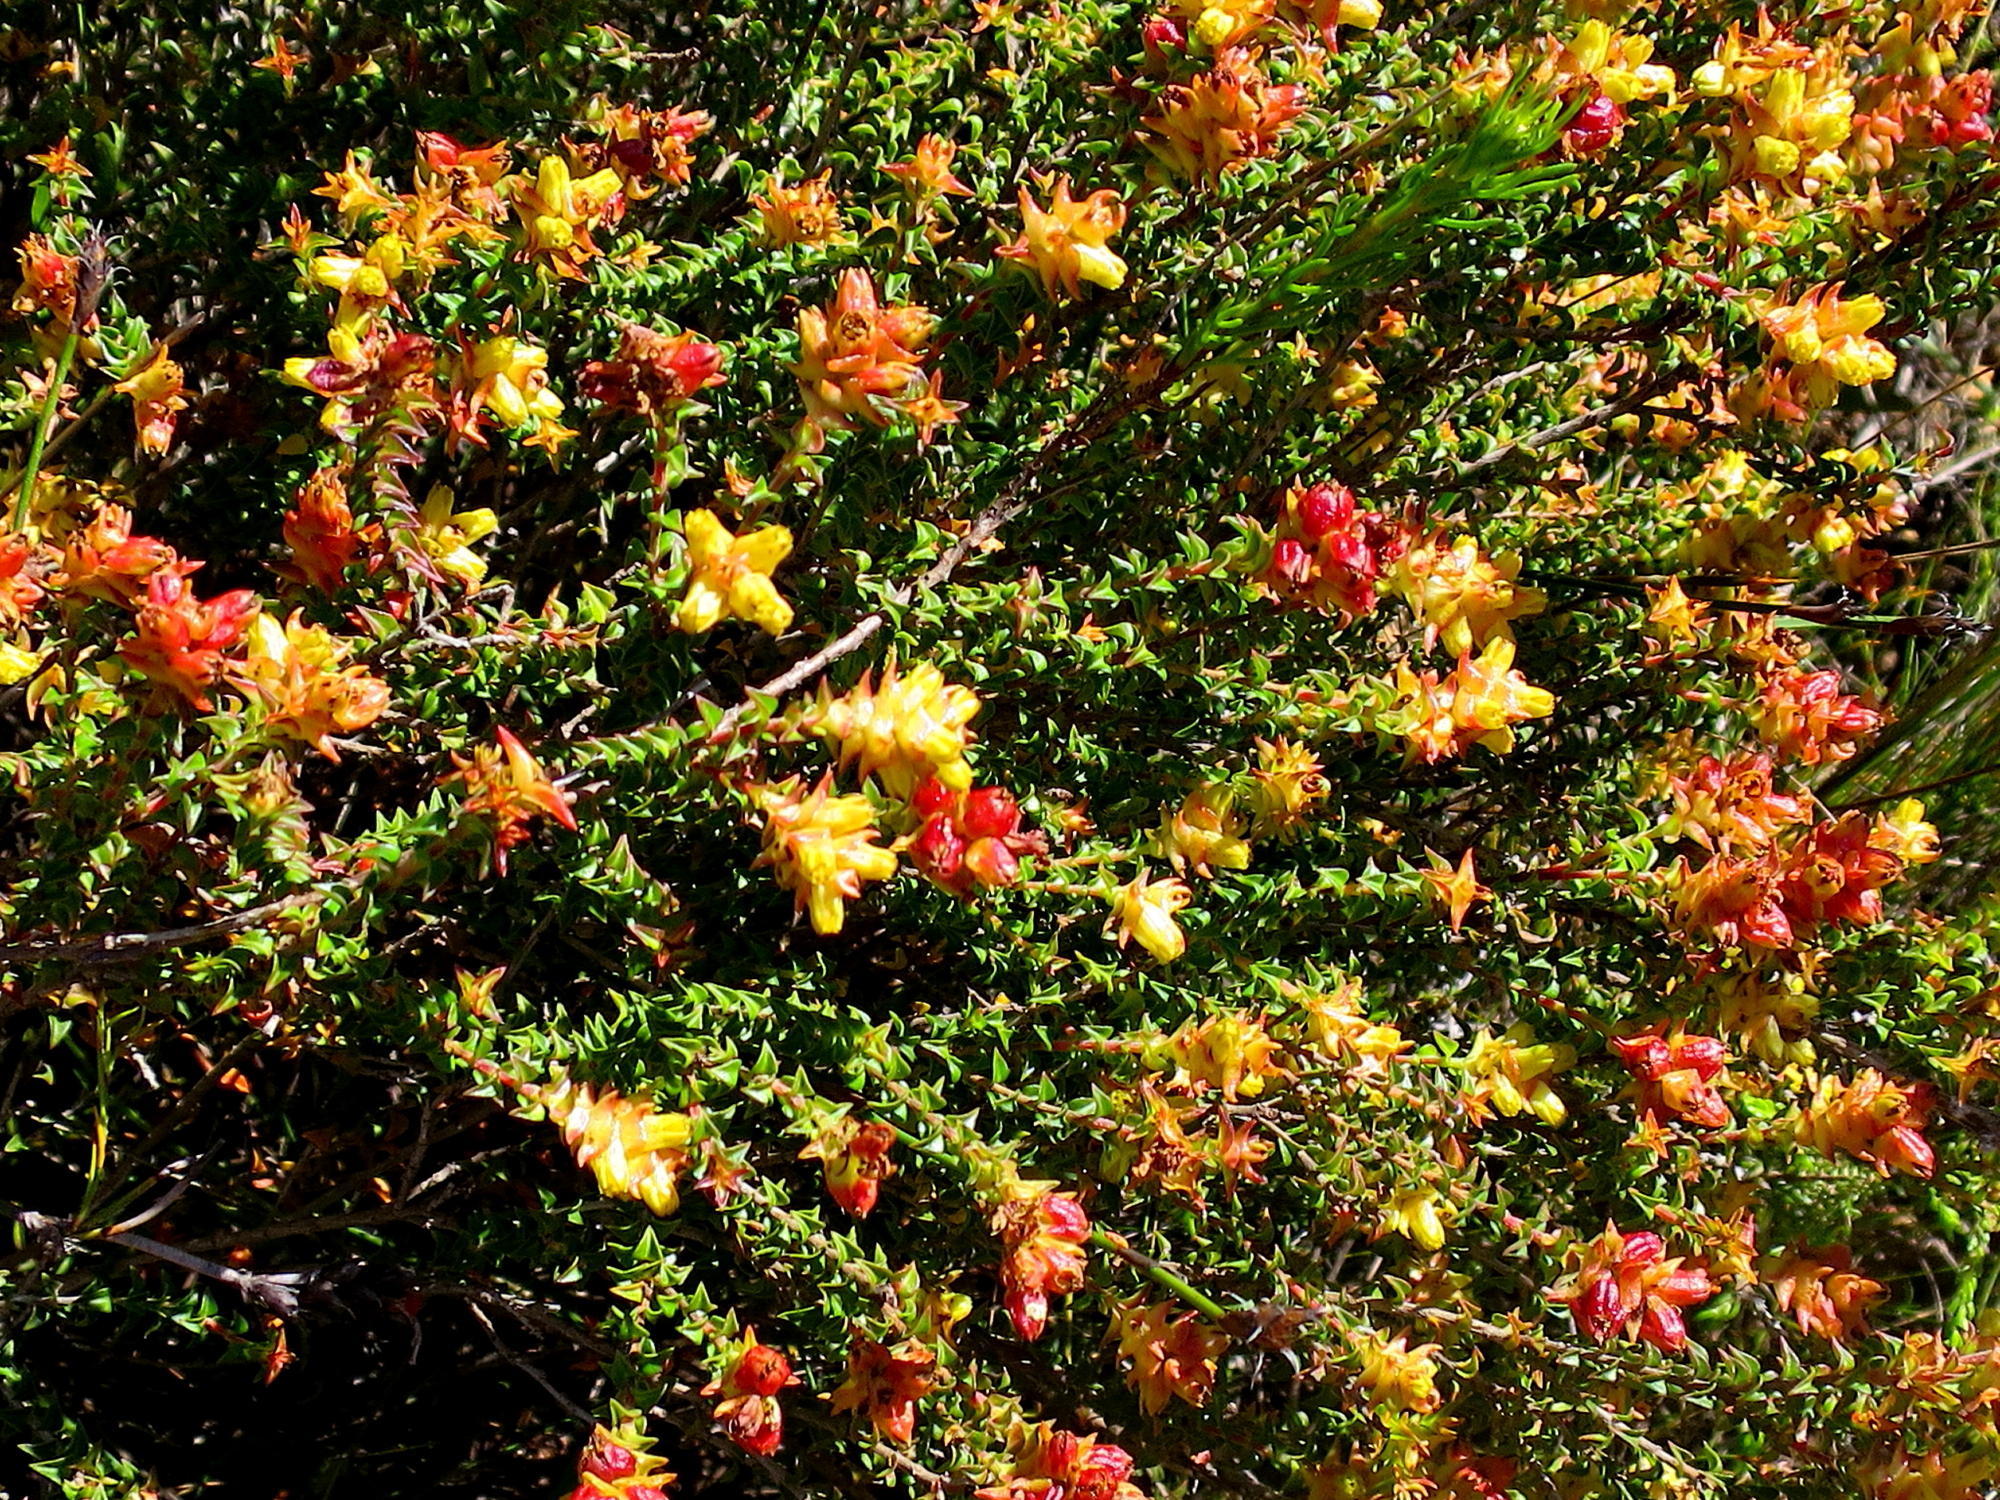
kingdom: Plantae
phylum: Tracheophyta
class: Magnoliopsida
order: Myrtales
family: Penaeaceae
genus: Penaea
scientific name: Penaea mucronata
